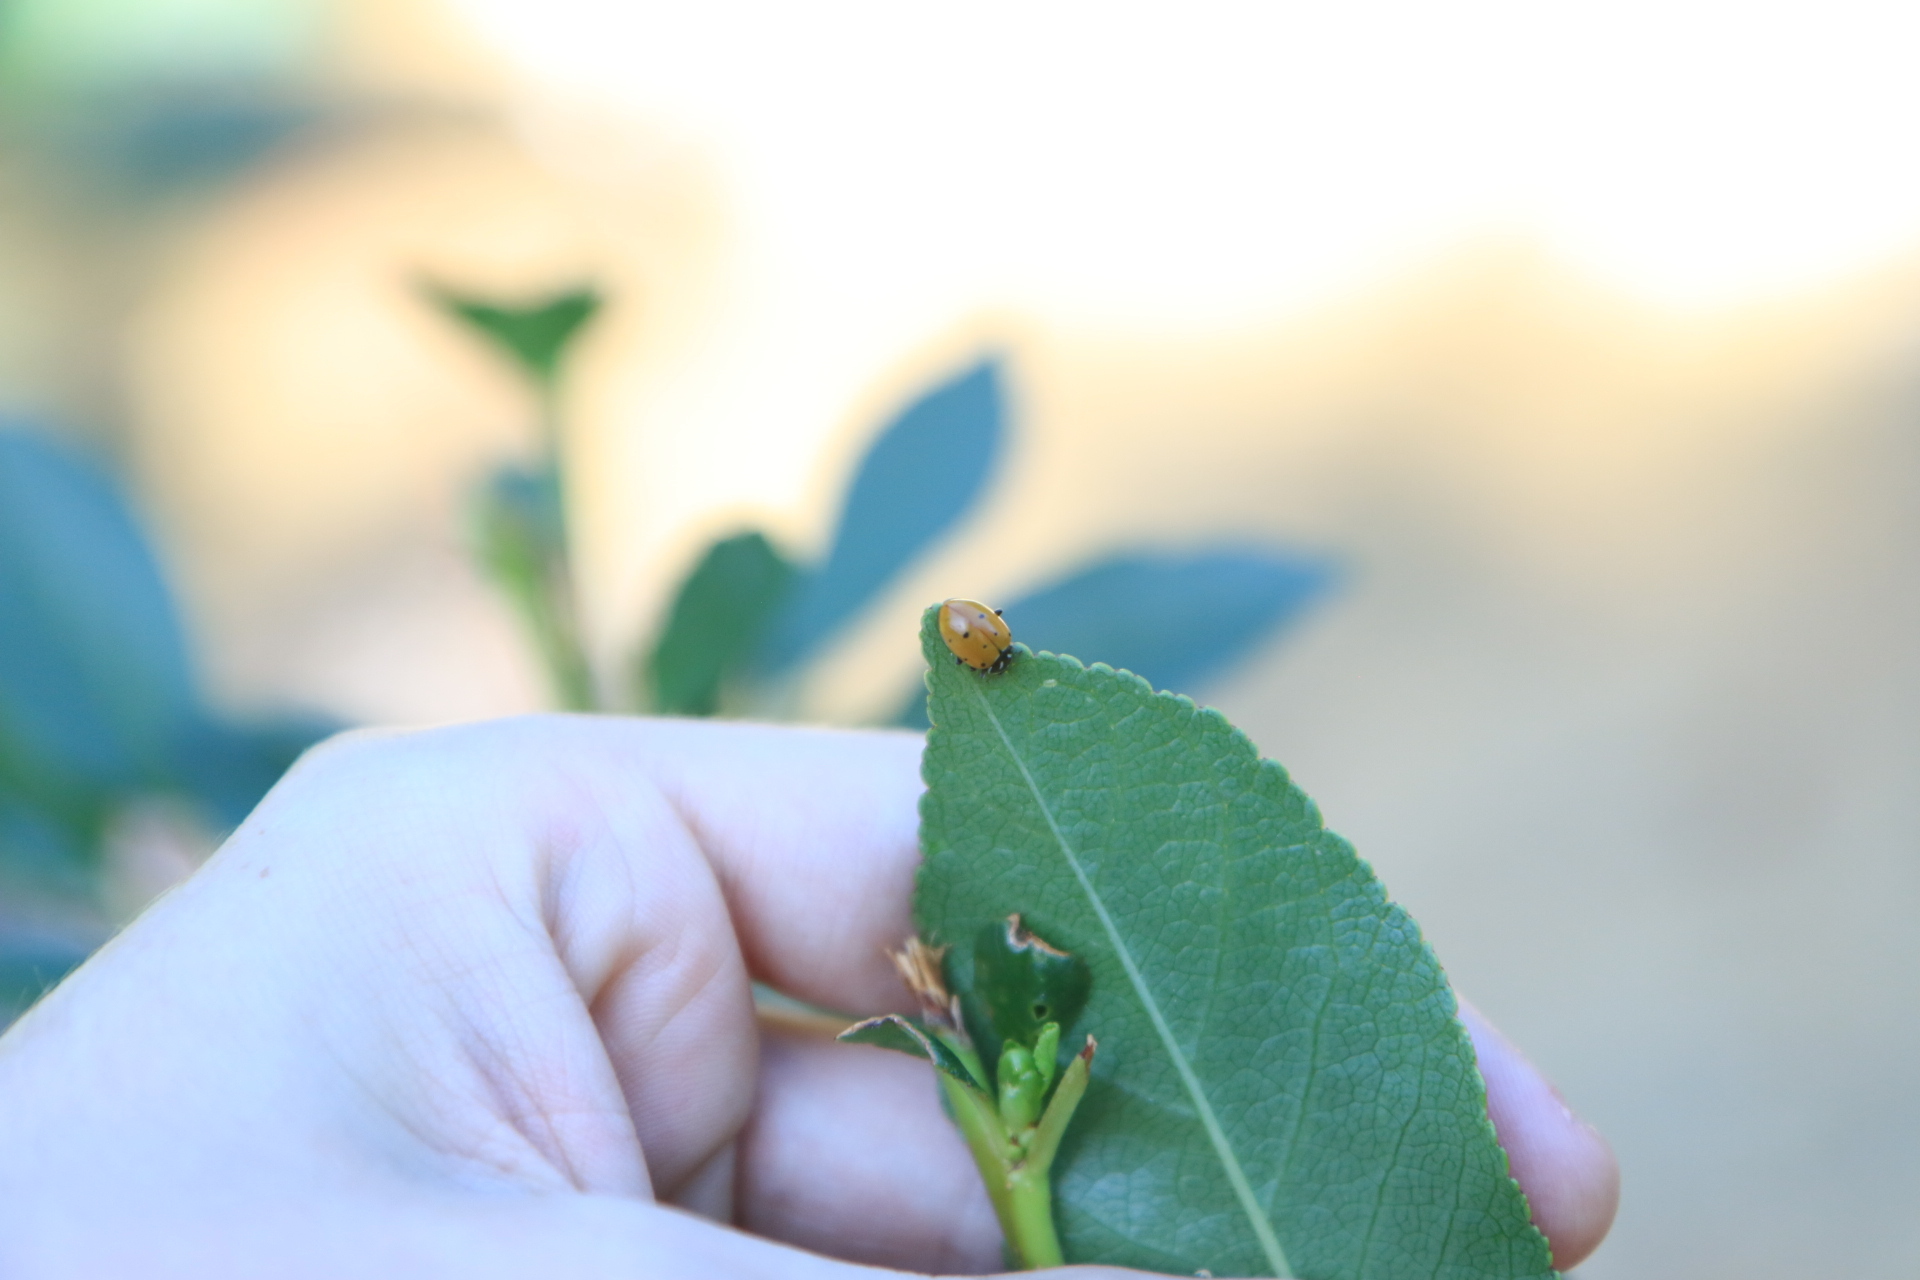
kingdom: Animalia
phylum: Arthropoda
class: Insecta
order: Coleoptera
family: Coccinellidae
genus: Hippodamia
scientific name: Hippodamia convergens
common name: Convergent lady beetle
